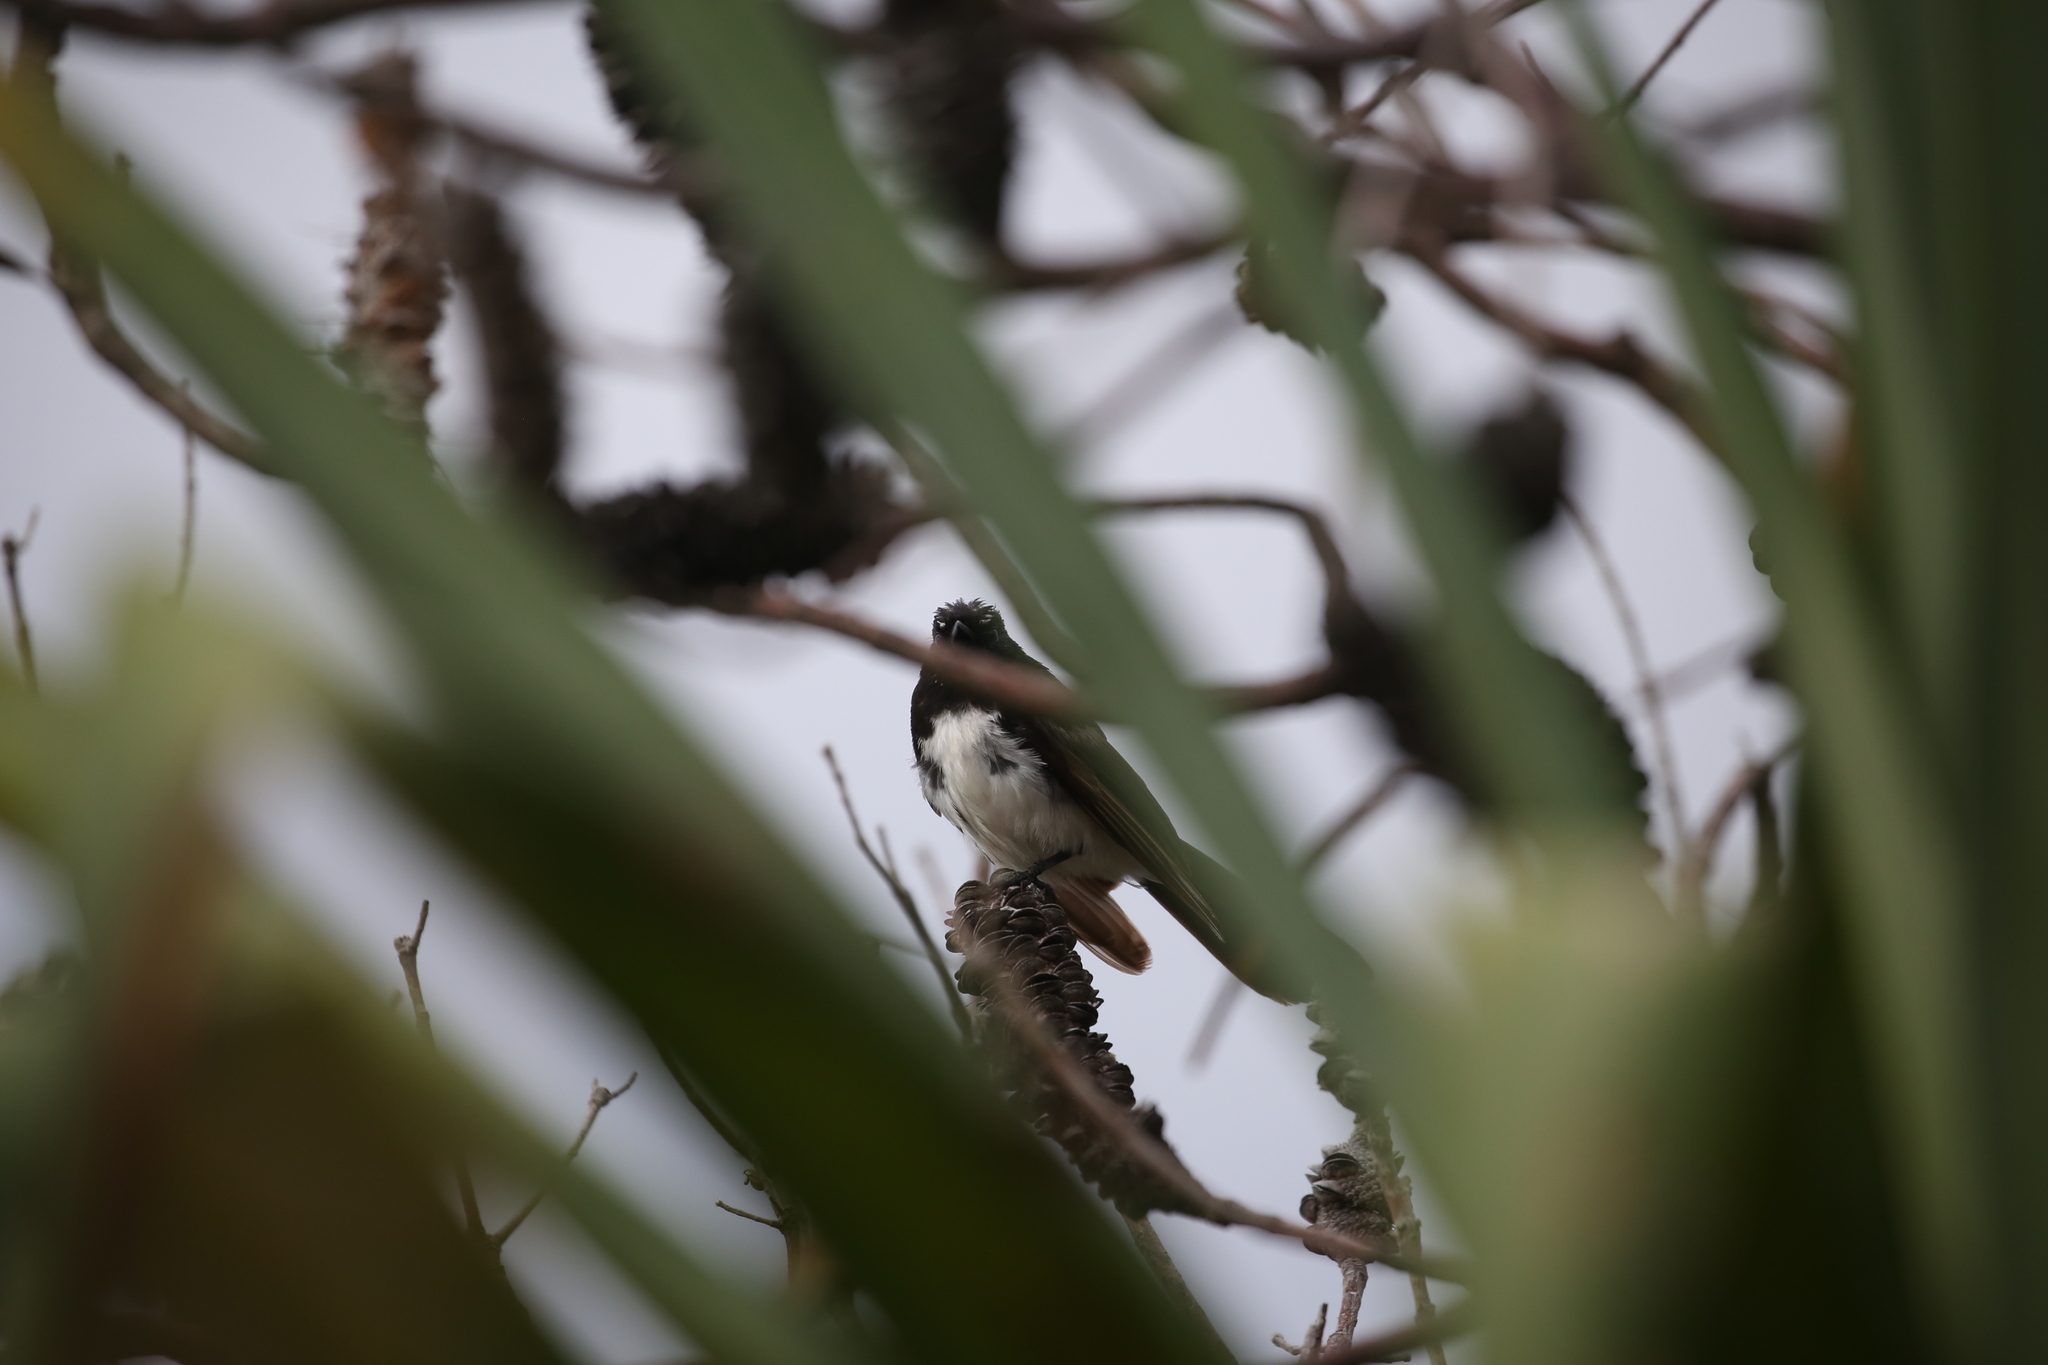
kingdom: Animalia
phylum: Chordata
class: Aves
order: Passeriformes
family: Rhipiduridae
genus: Rhipidura
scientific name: Rhipidura leucophrys
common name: Willie wagtail
